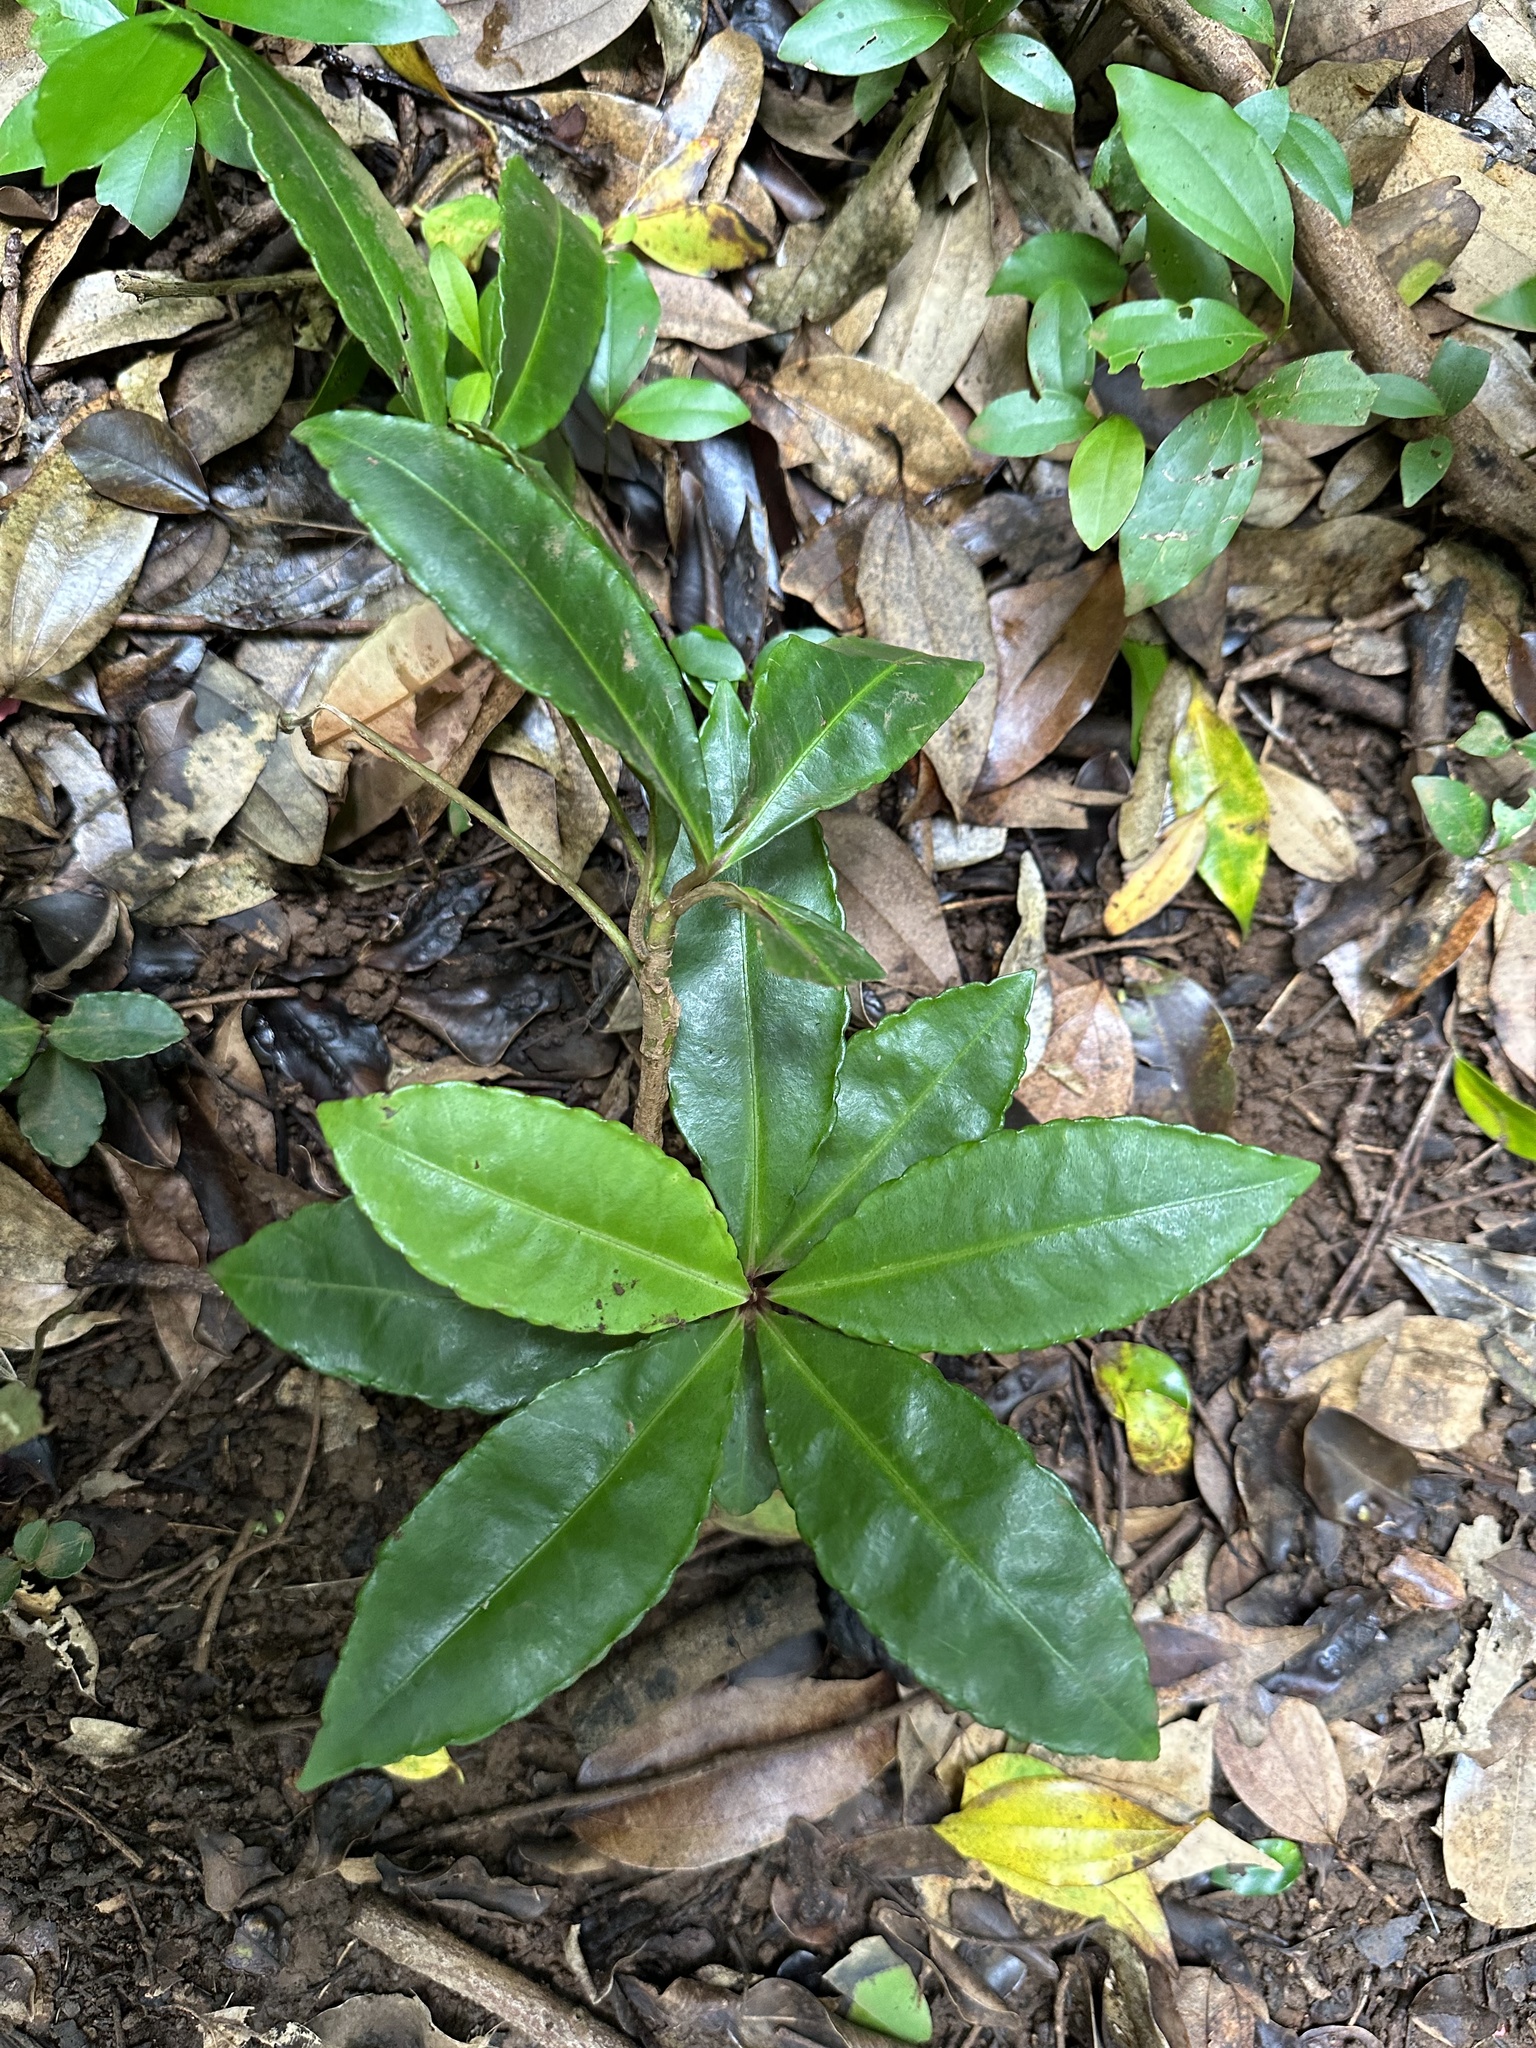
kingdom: Plantae
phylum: Tracheophyta
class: Magnoliopsida
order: Ericales
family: Primulaceae
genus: Ardisia
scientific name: Ardisia crenata
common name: Hen's eyes
